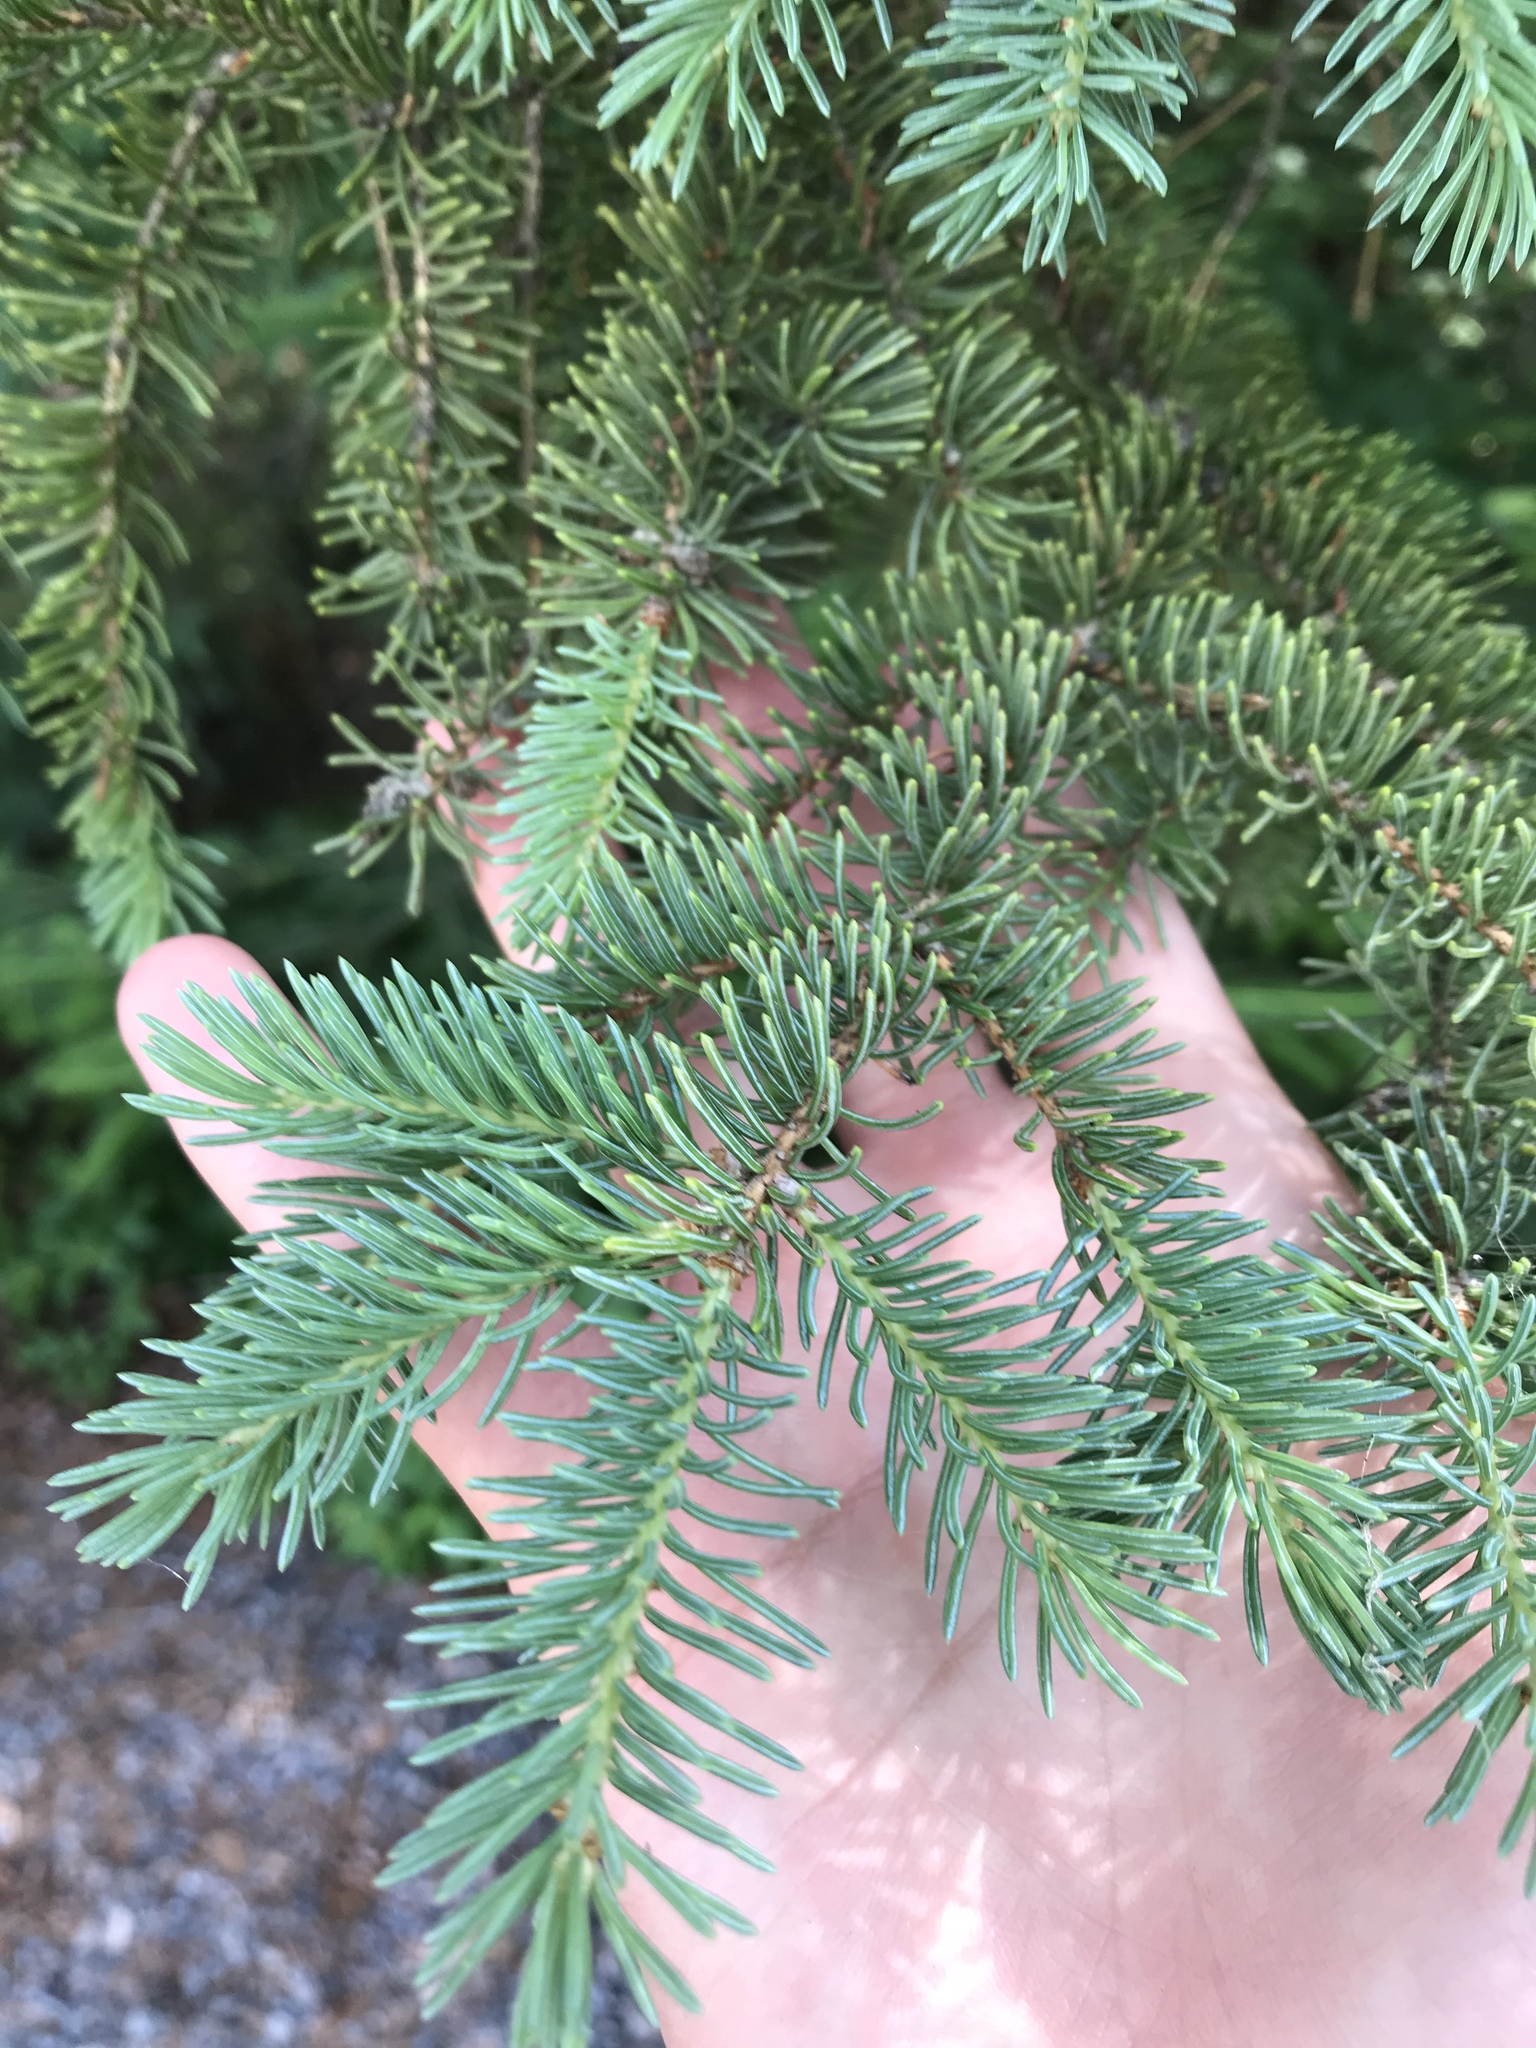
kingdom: Plantae
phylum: Tracheophyta
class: Pinopsida
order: Pinales
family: Pinaceae
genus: Picea
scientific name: Picea glauca
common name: White spruce
